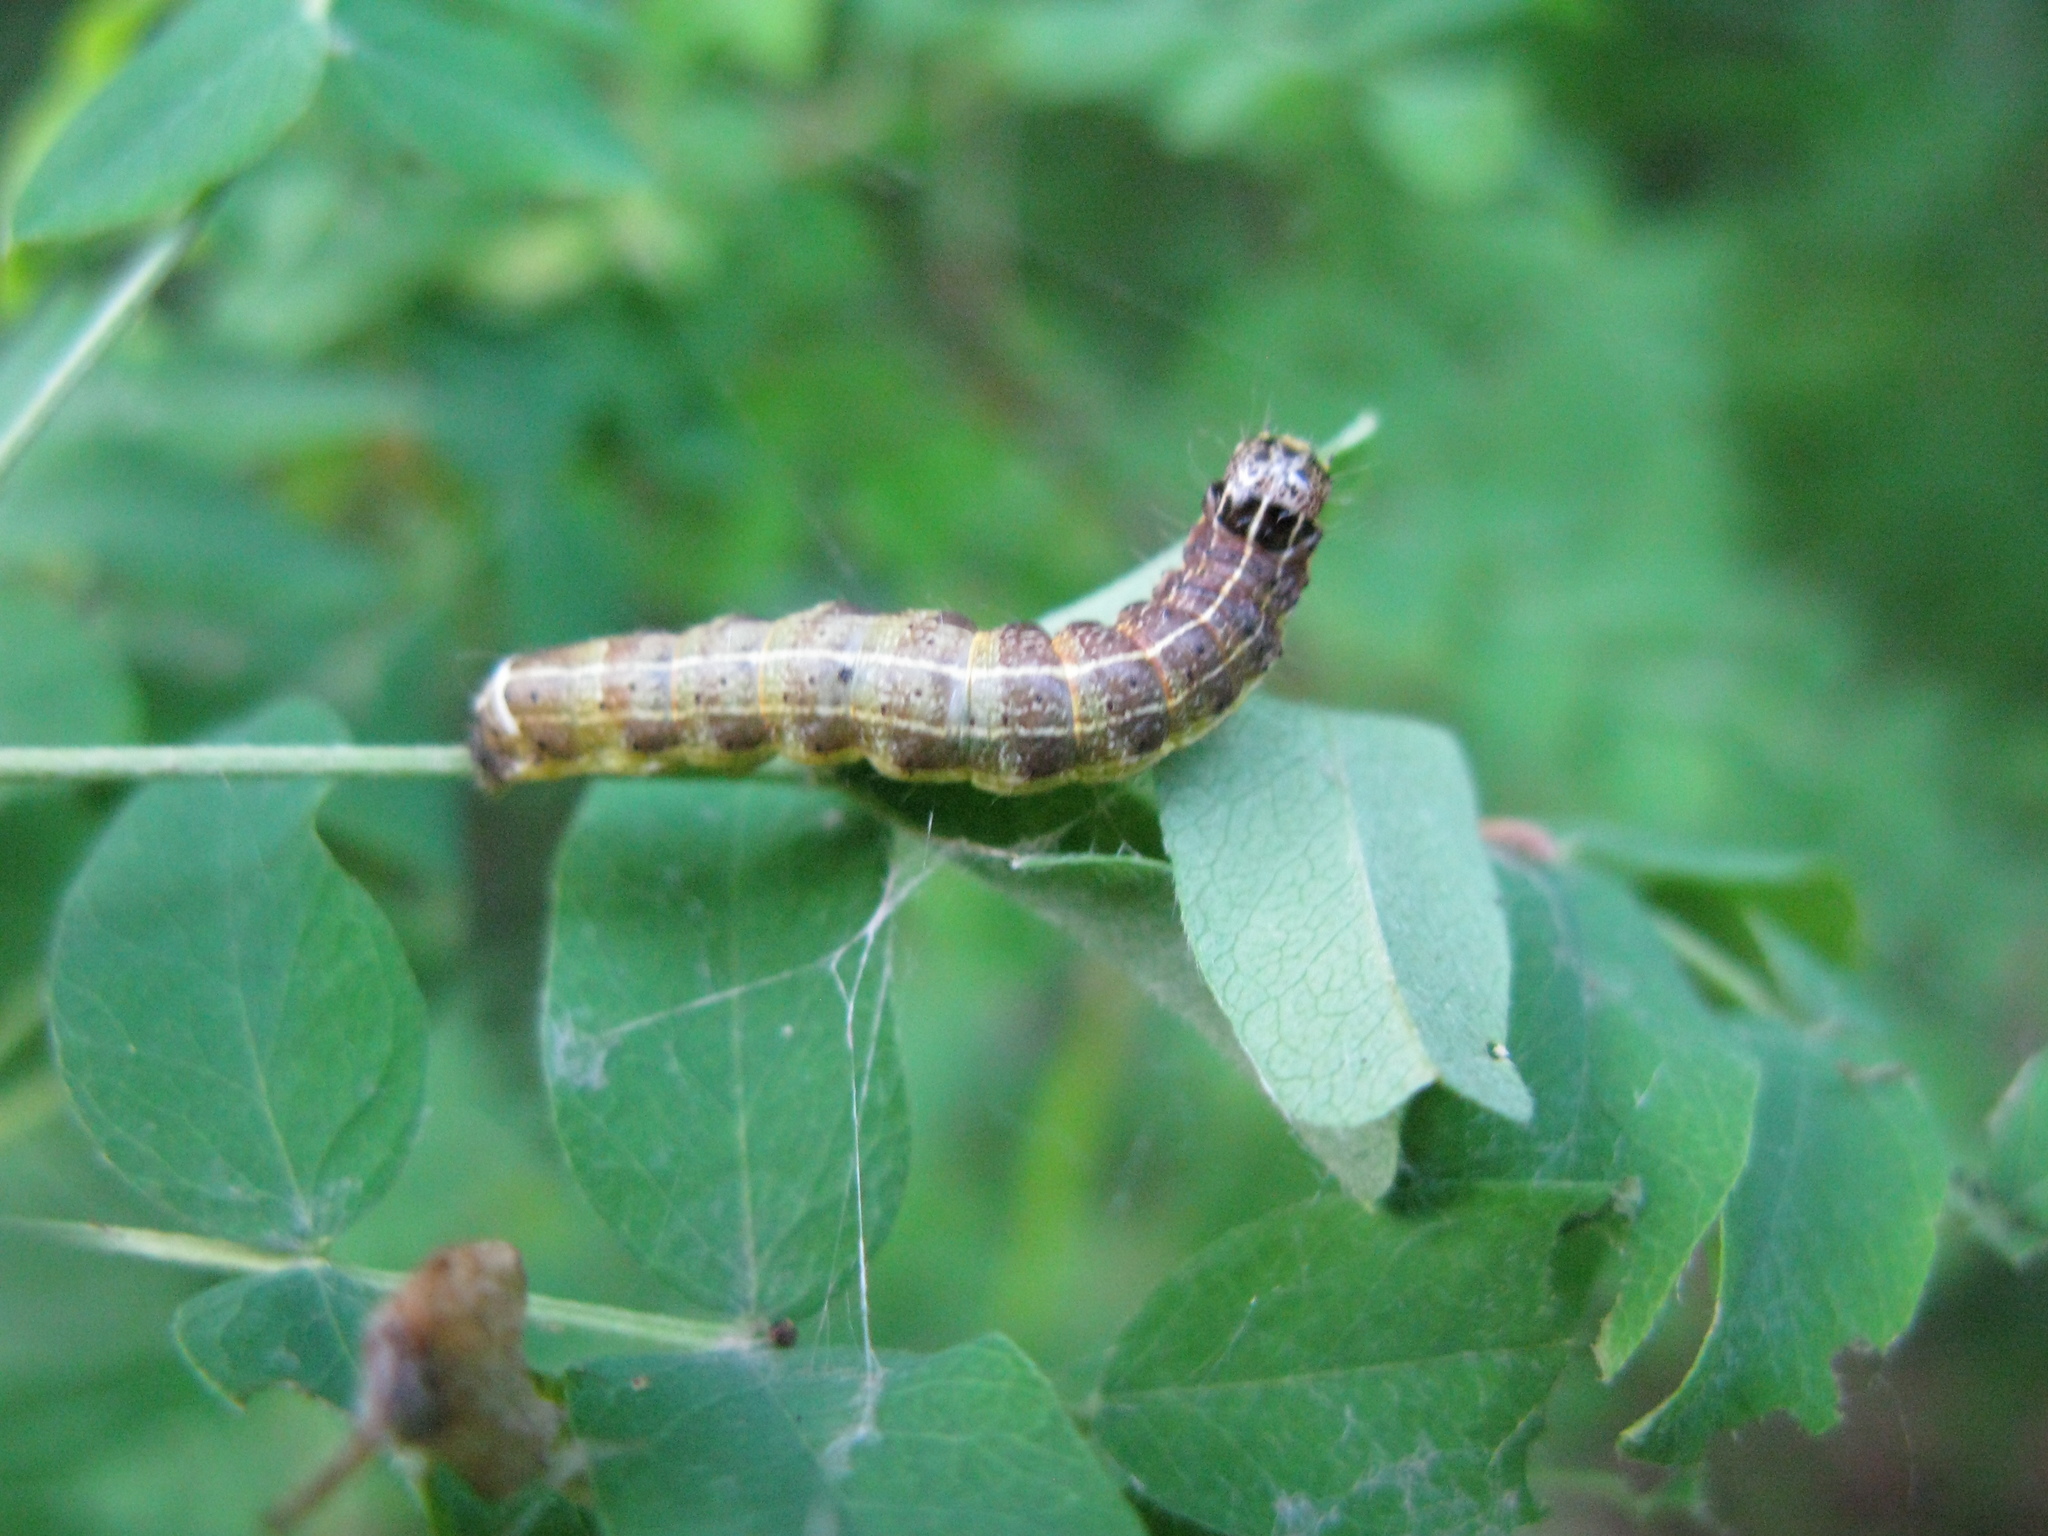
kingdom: Animalia
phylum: Arthropoda
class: Insecta
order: Lepidoptera
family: Noctuidae
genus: Orthosia
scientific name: Orthosia cruda
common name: Small quaker
